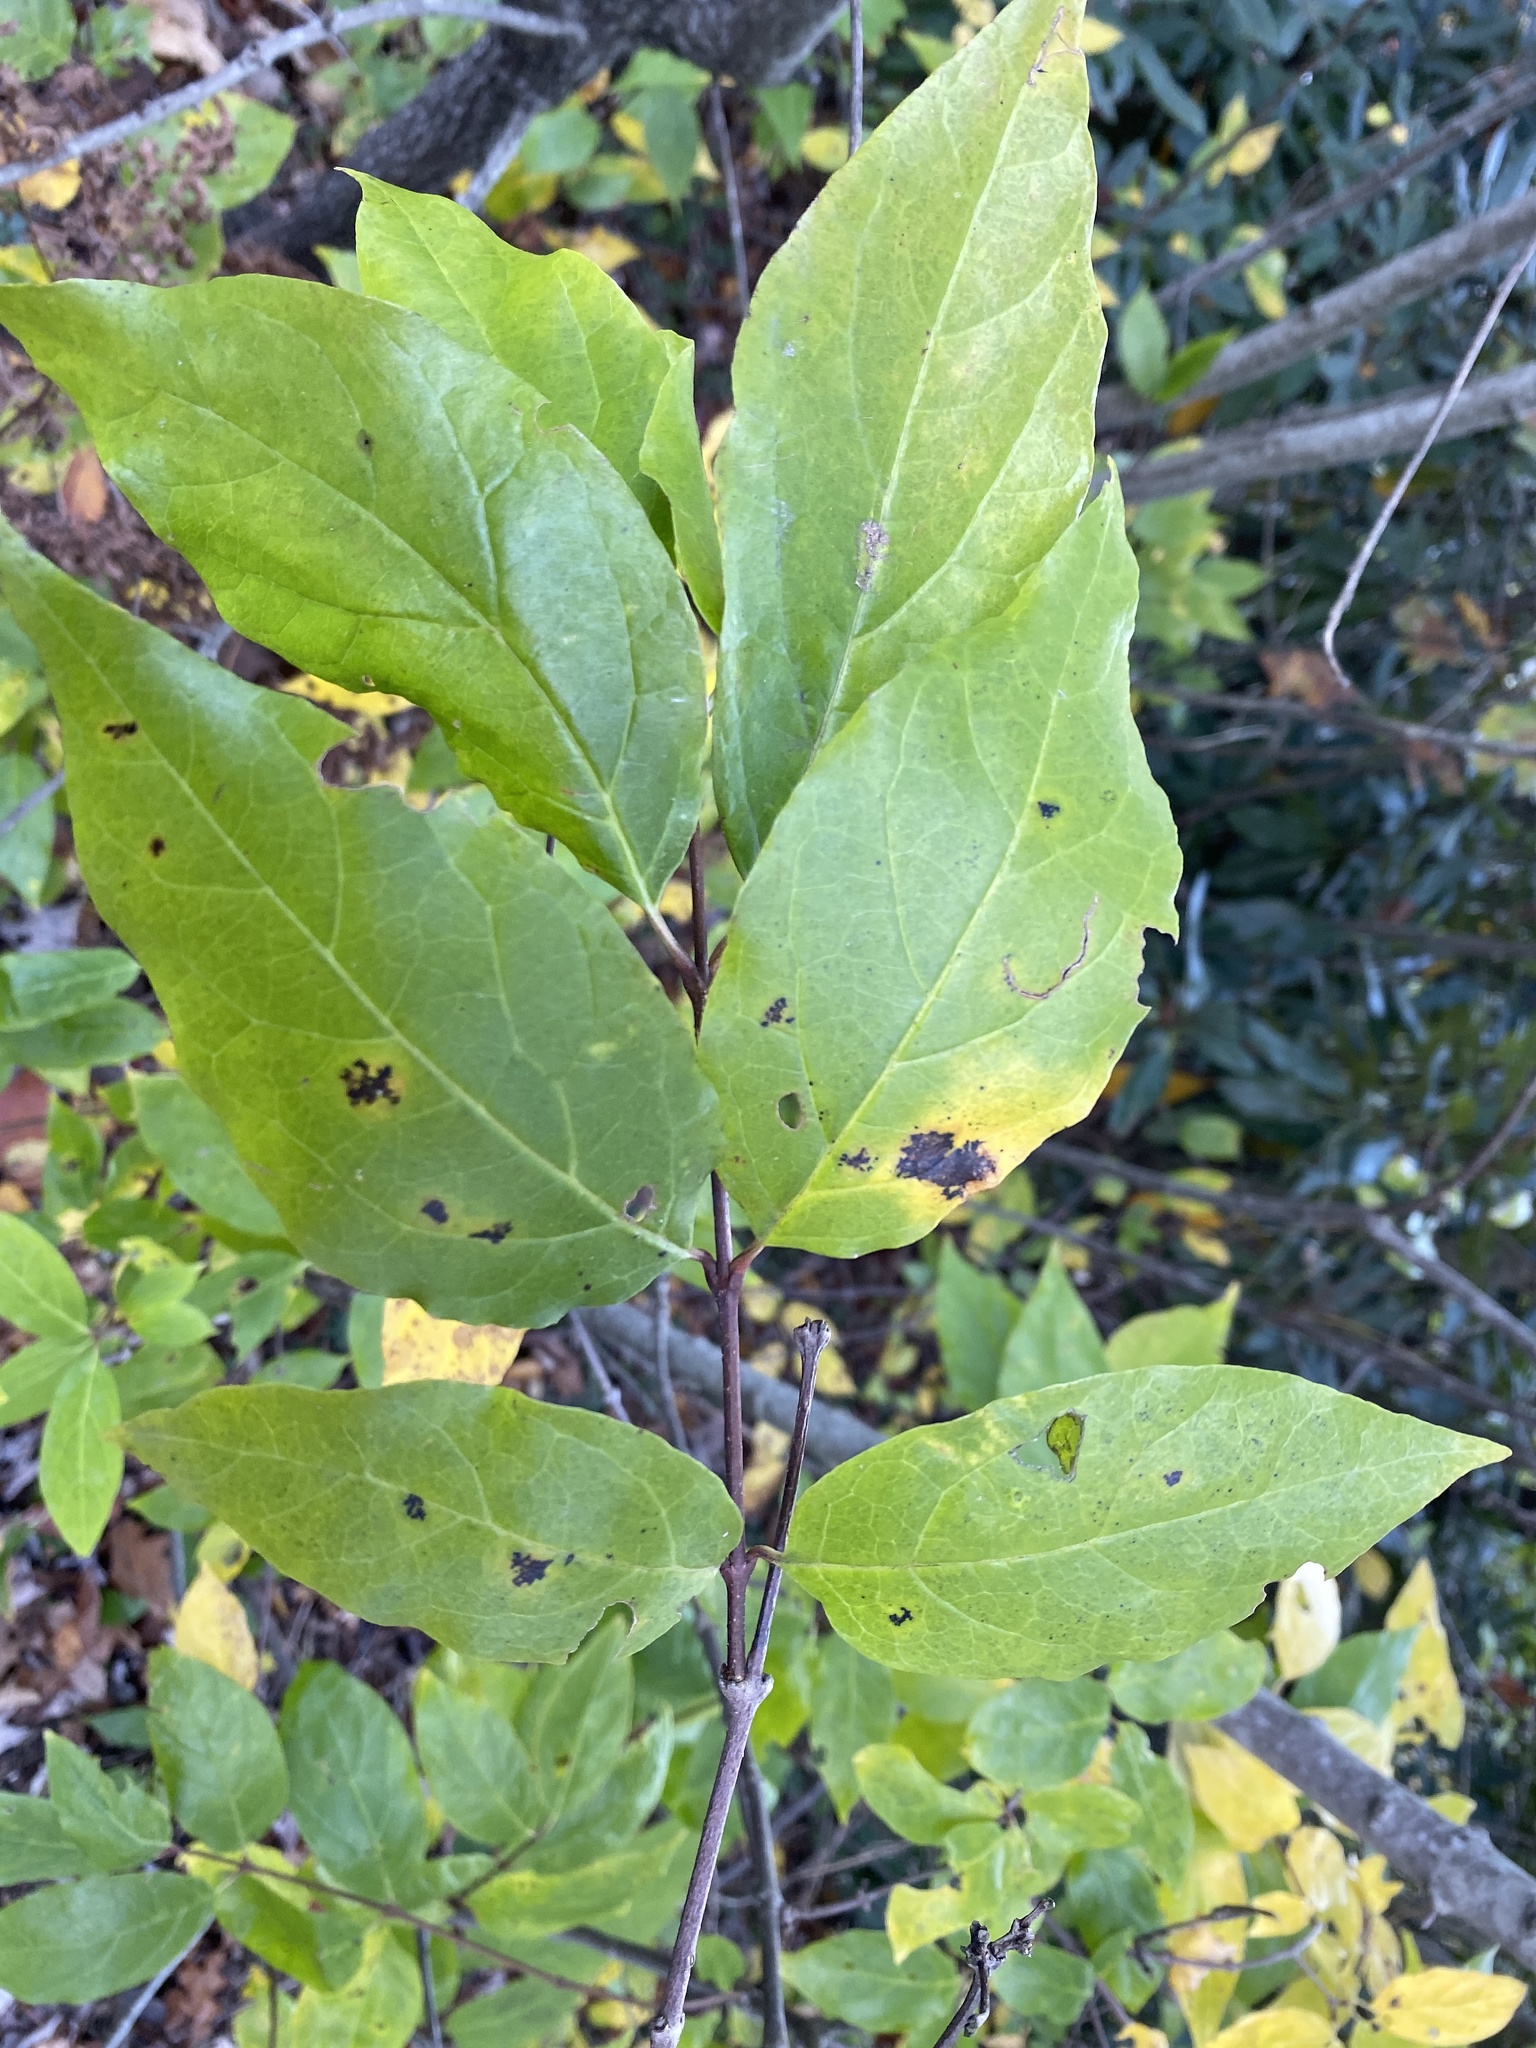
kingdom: Plantae
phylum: Tracheophyta
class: Magnoliopsida
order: Laurales
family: Calycanthaceae
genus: Calycanthus
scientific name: Calycanthus floridus
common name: Carolina-allspice
